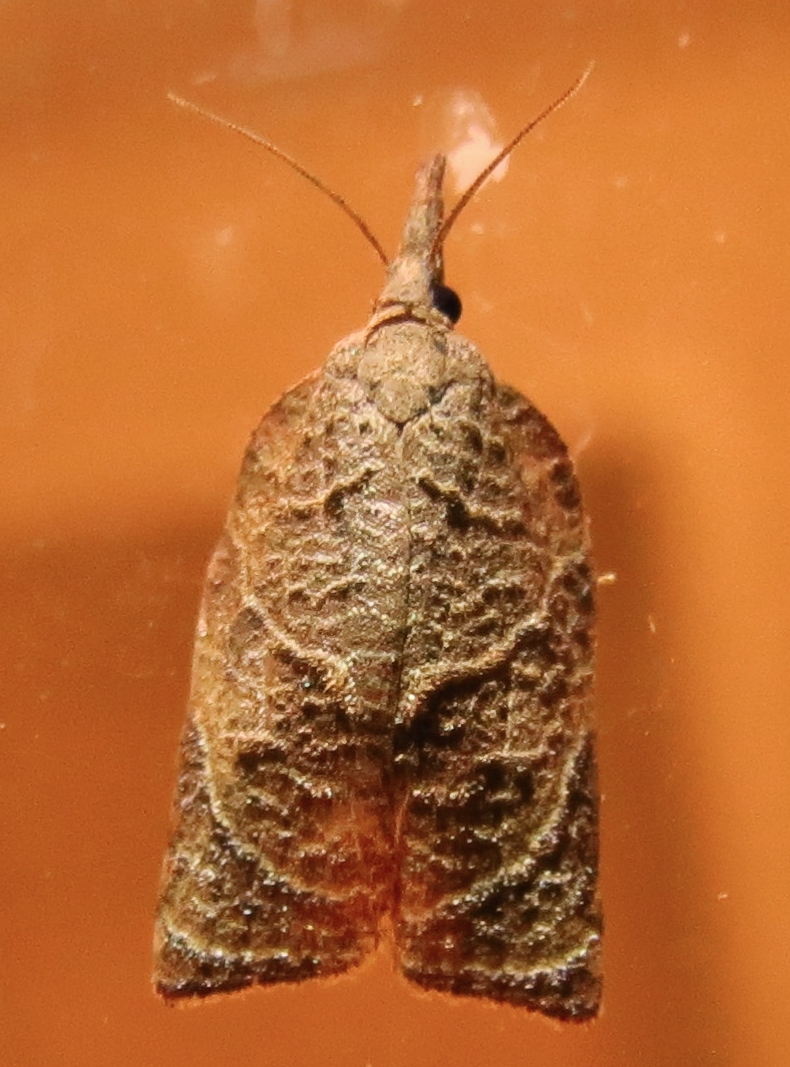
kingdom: Animalia
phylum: Arthropoda
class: Insecta
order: Lepidoptera
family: Tortricidae
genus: Platynota
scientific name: Platynota rostrana
